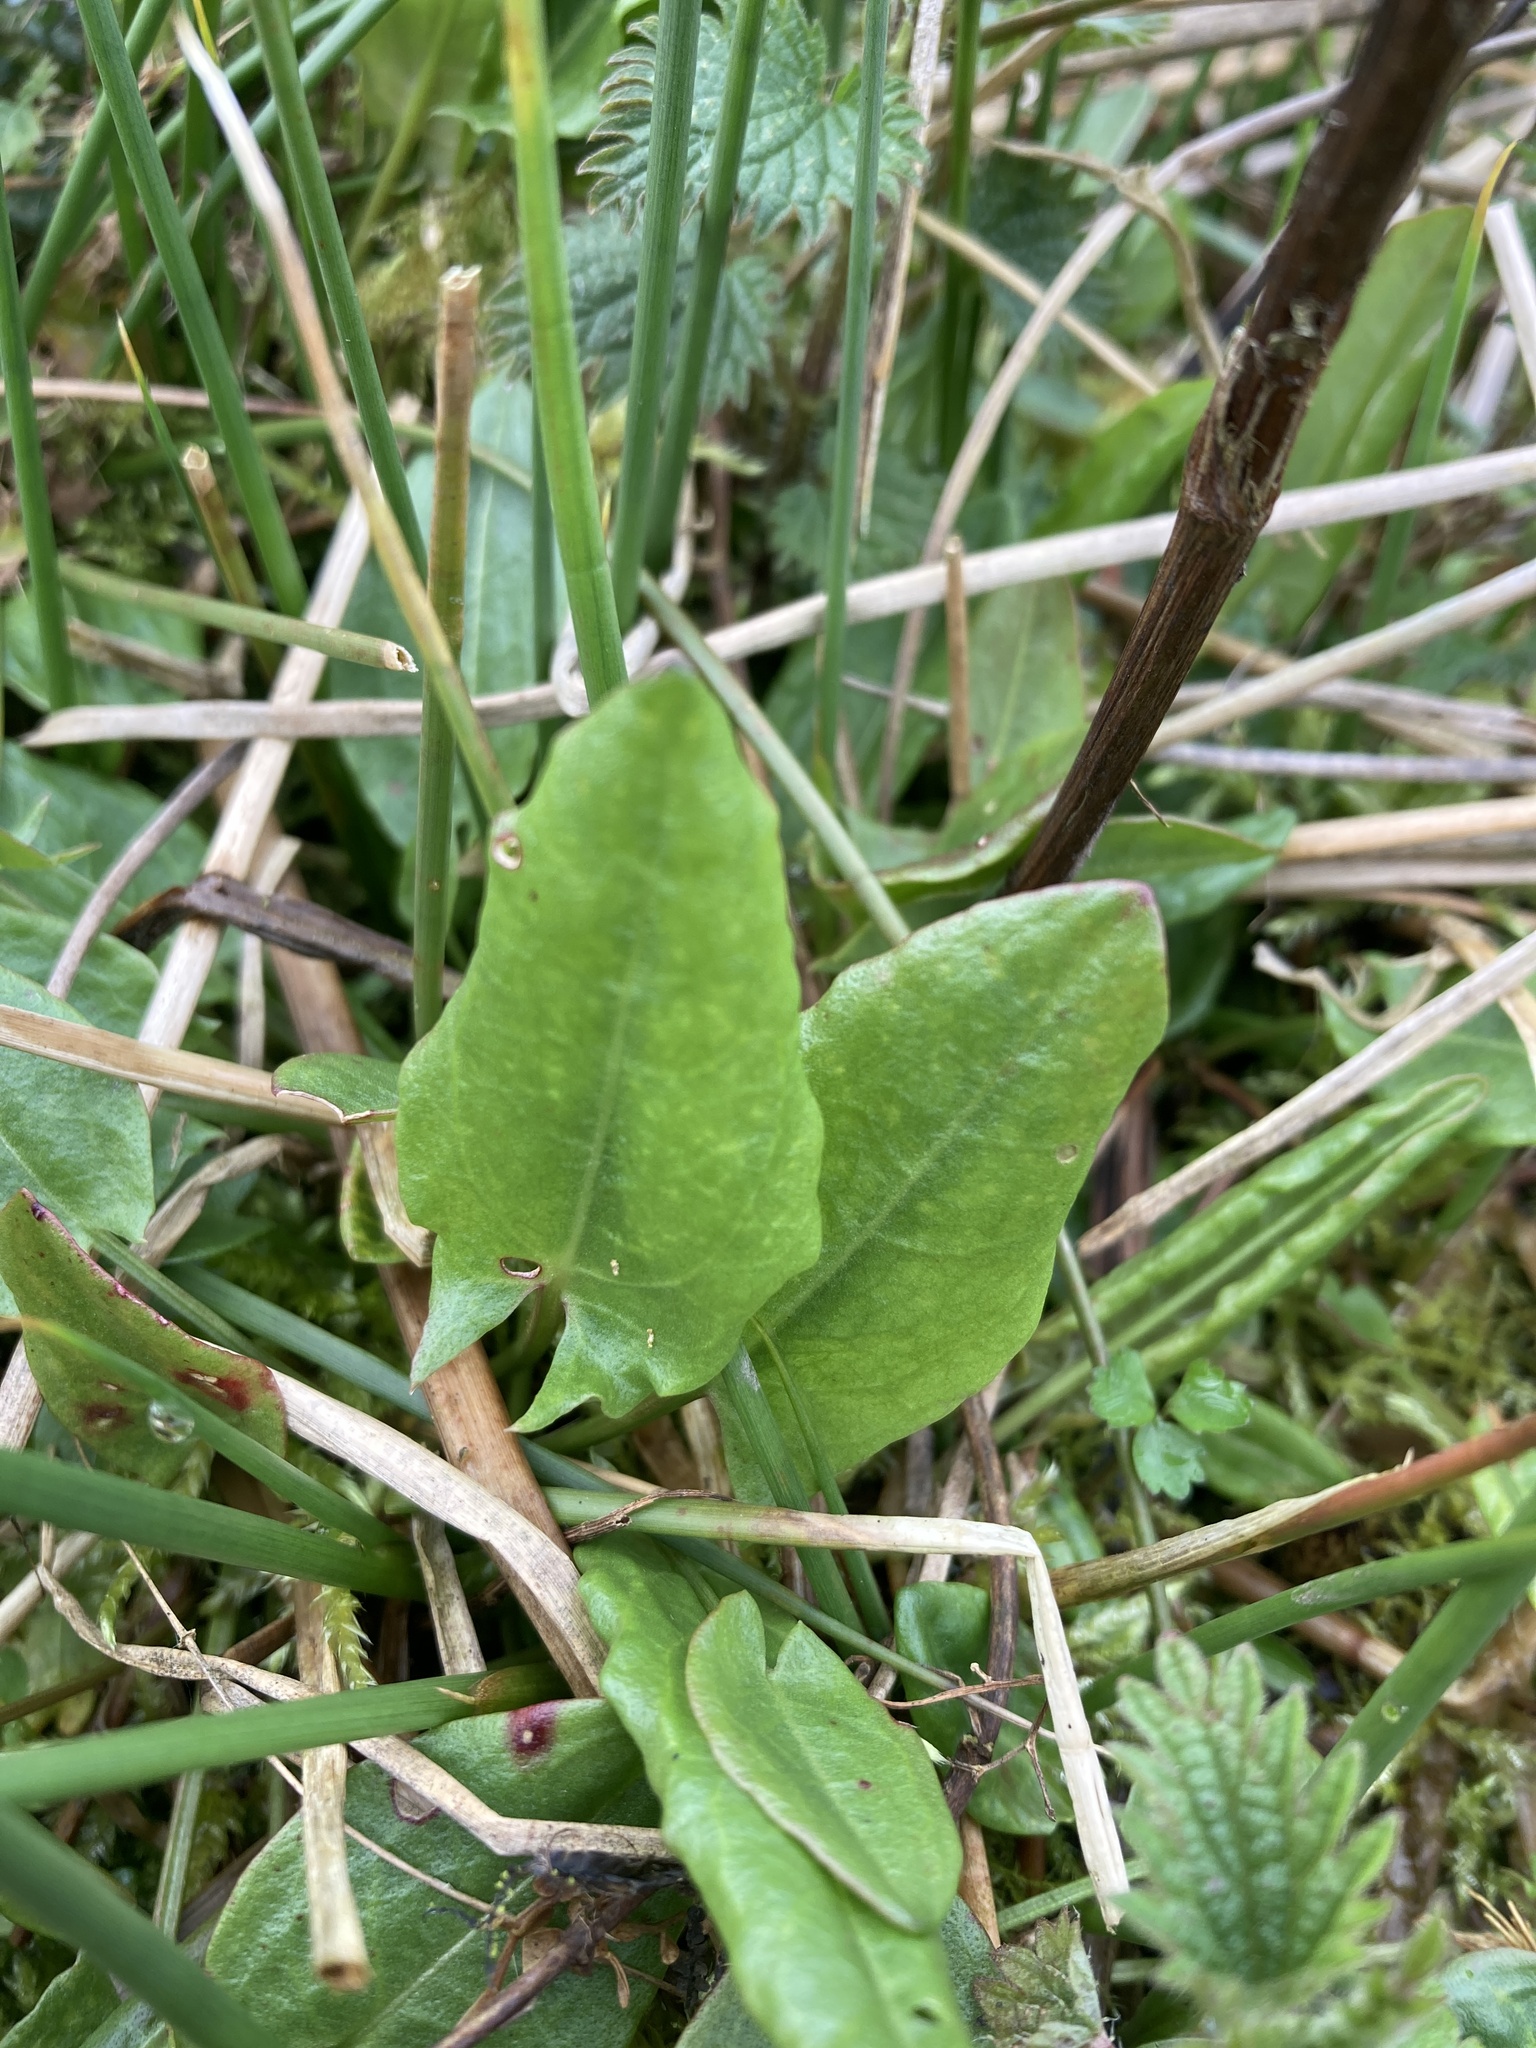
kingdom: Plantae
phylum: Tracheophyta
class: Magnoliopsida
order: Caryophyllales
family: Polygonaceae
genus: Rumex
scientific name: Rumex acetosa
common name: Garden sorrel
